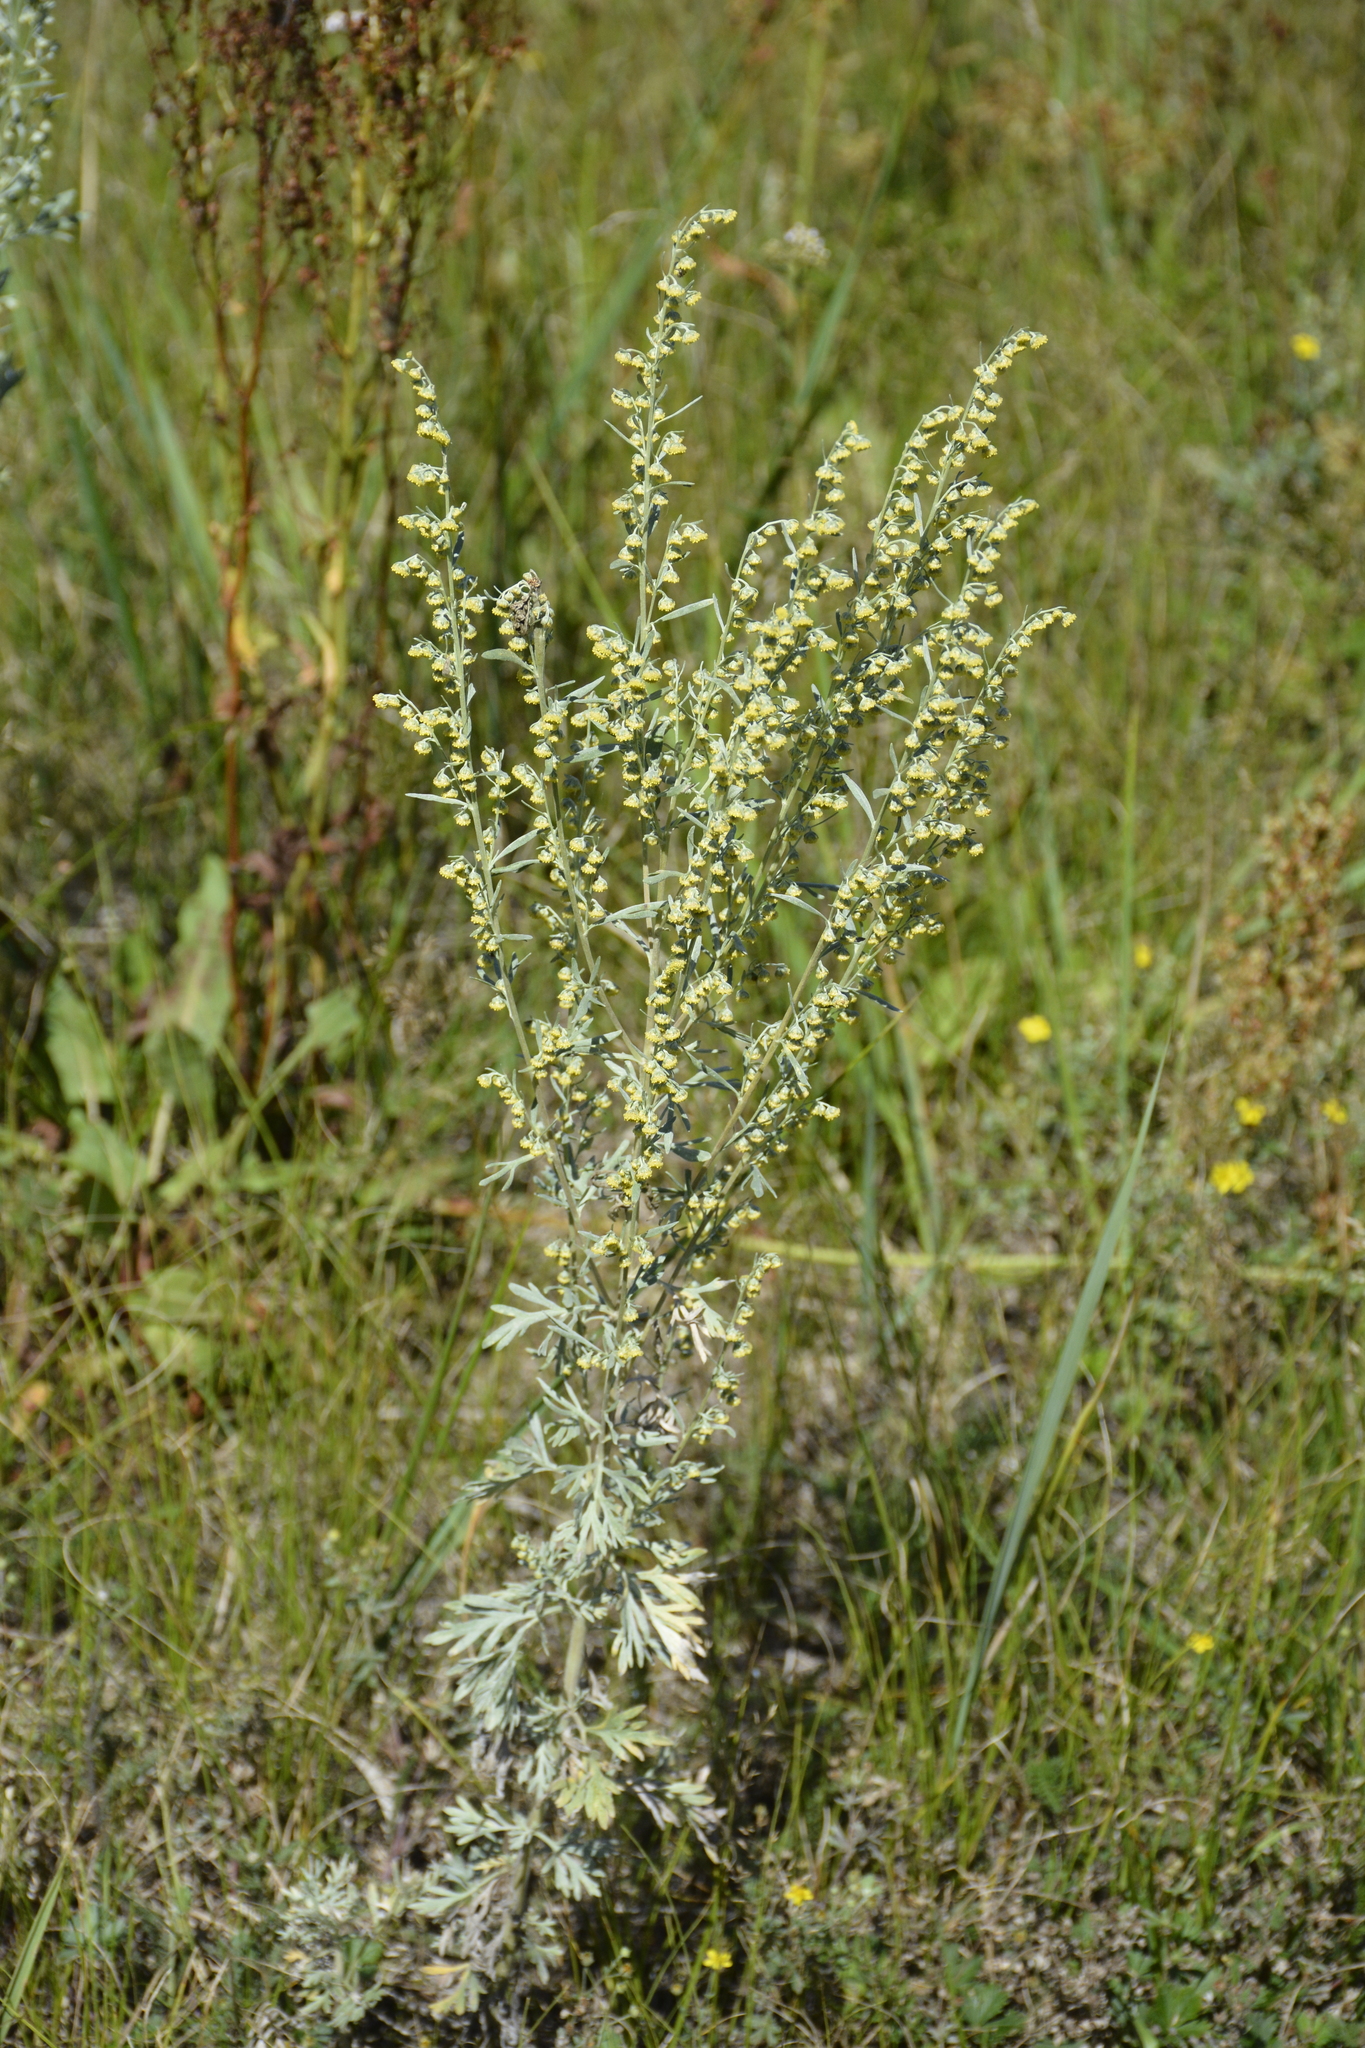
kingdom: Plantae
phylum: Tracheophyta
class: Magnoliopsida
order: Asterales
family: Asteraceae
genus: Artemisia
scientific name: Artemisia absinthium
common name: Wormwood
